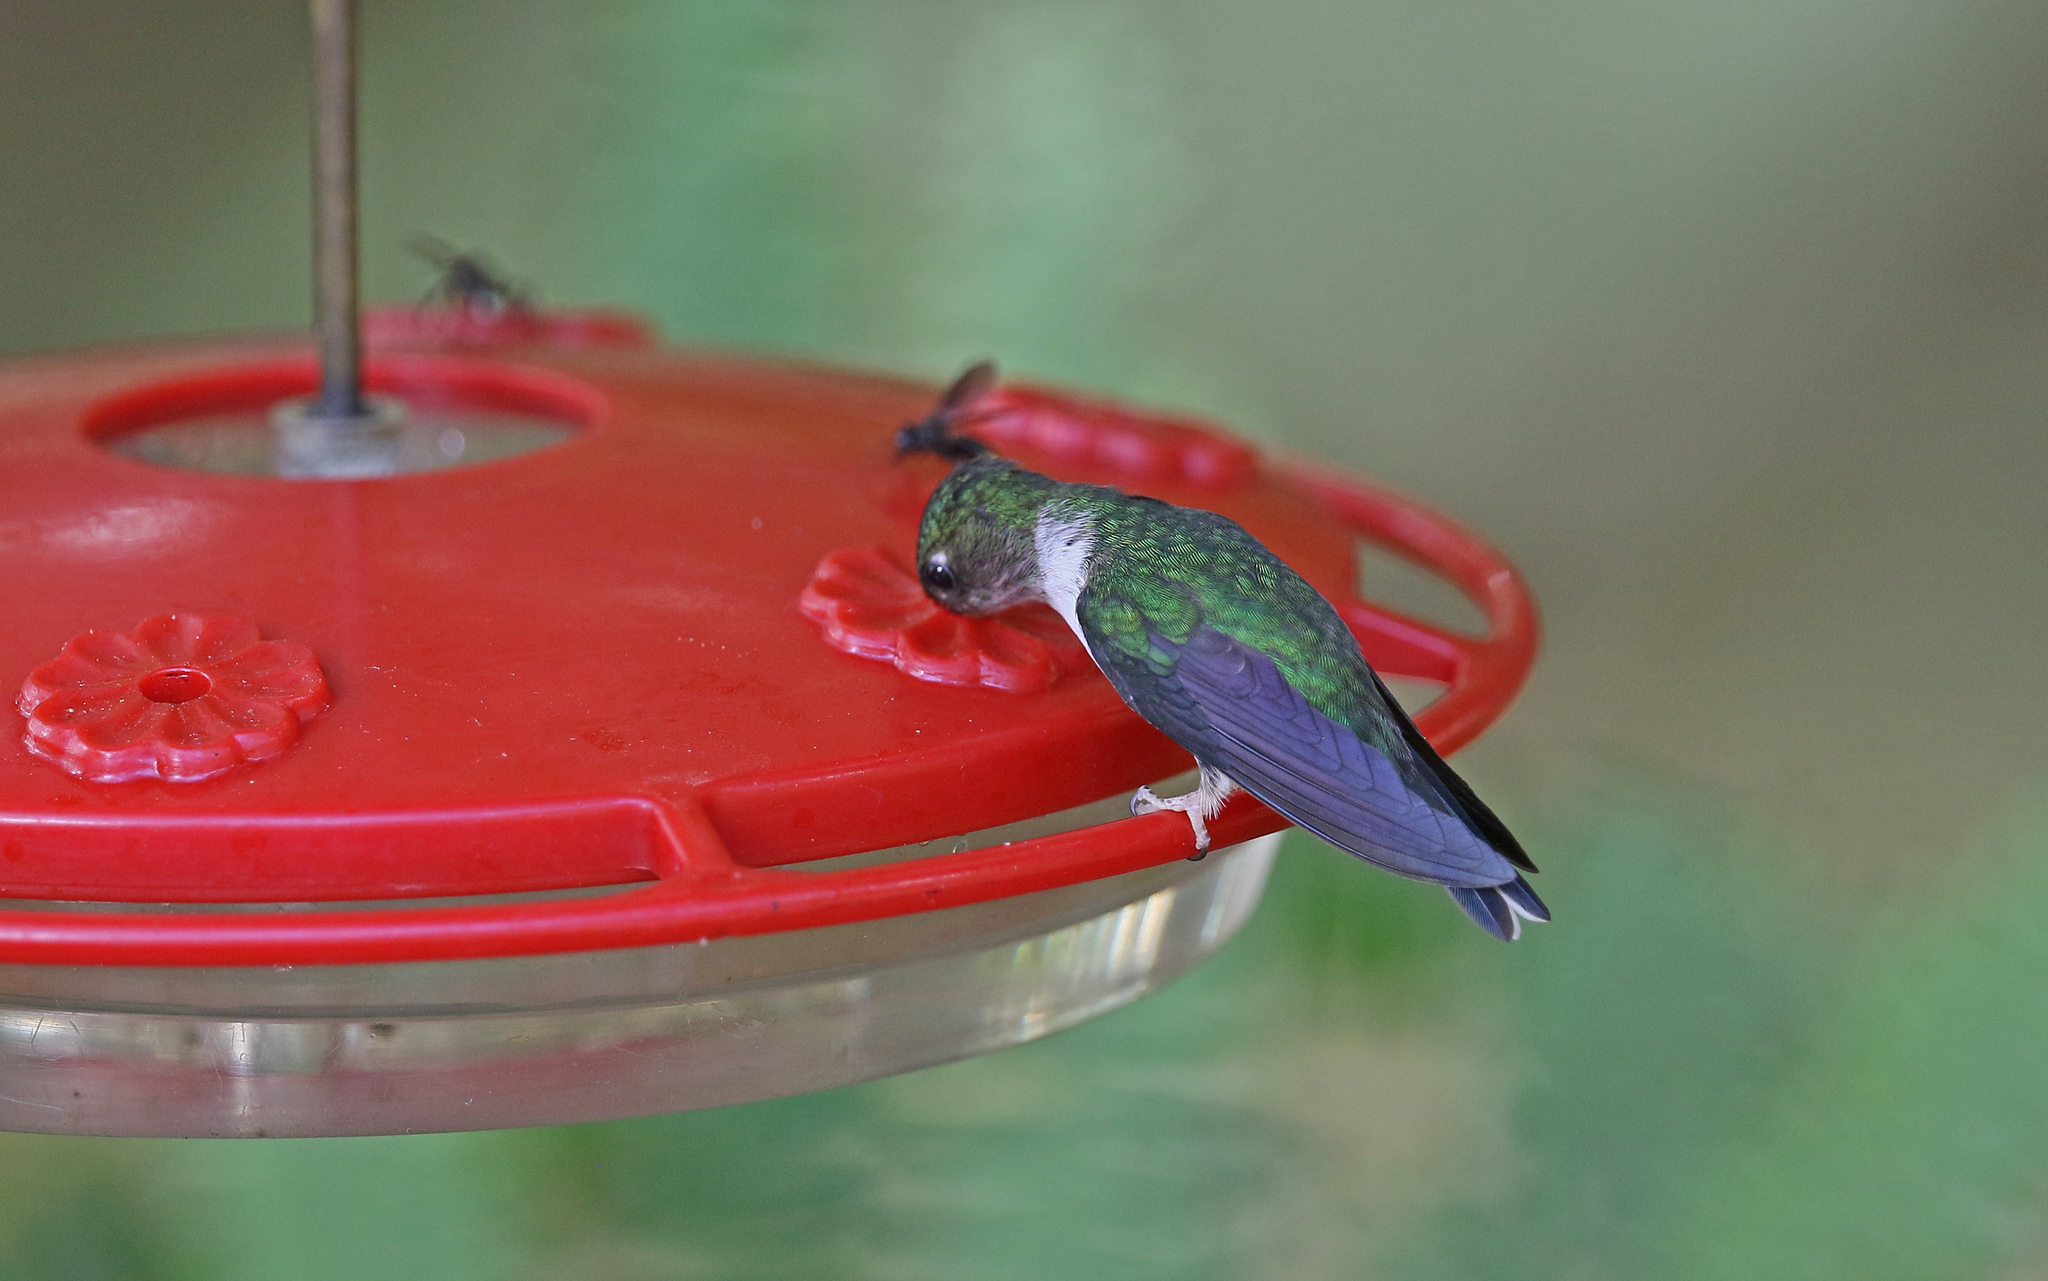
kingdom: Animalia
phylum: Chordata
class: Aves
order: Apodiformes
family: Trochilidae
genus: Phlogophilus
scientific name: Phlogophilus hemileucurus
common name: Ecuadorian piedtail
